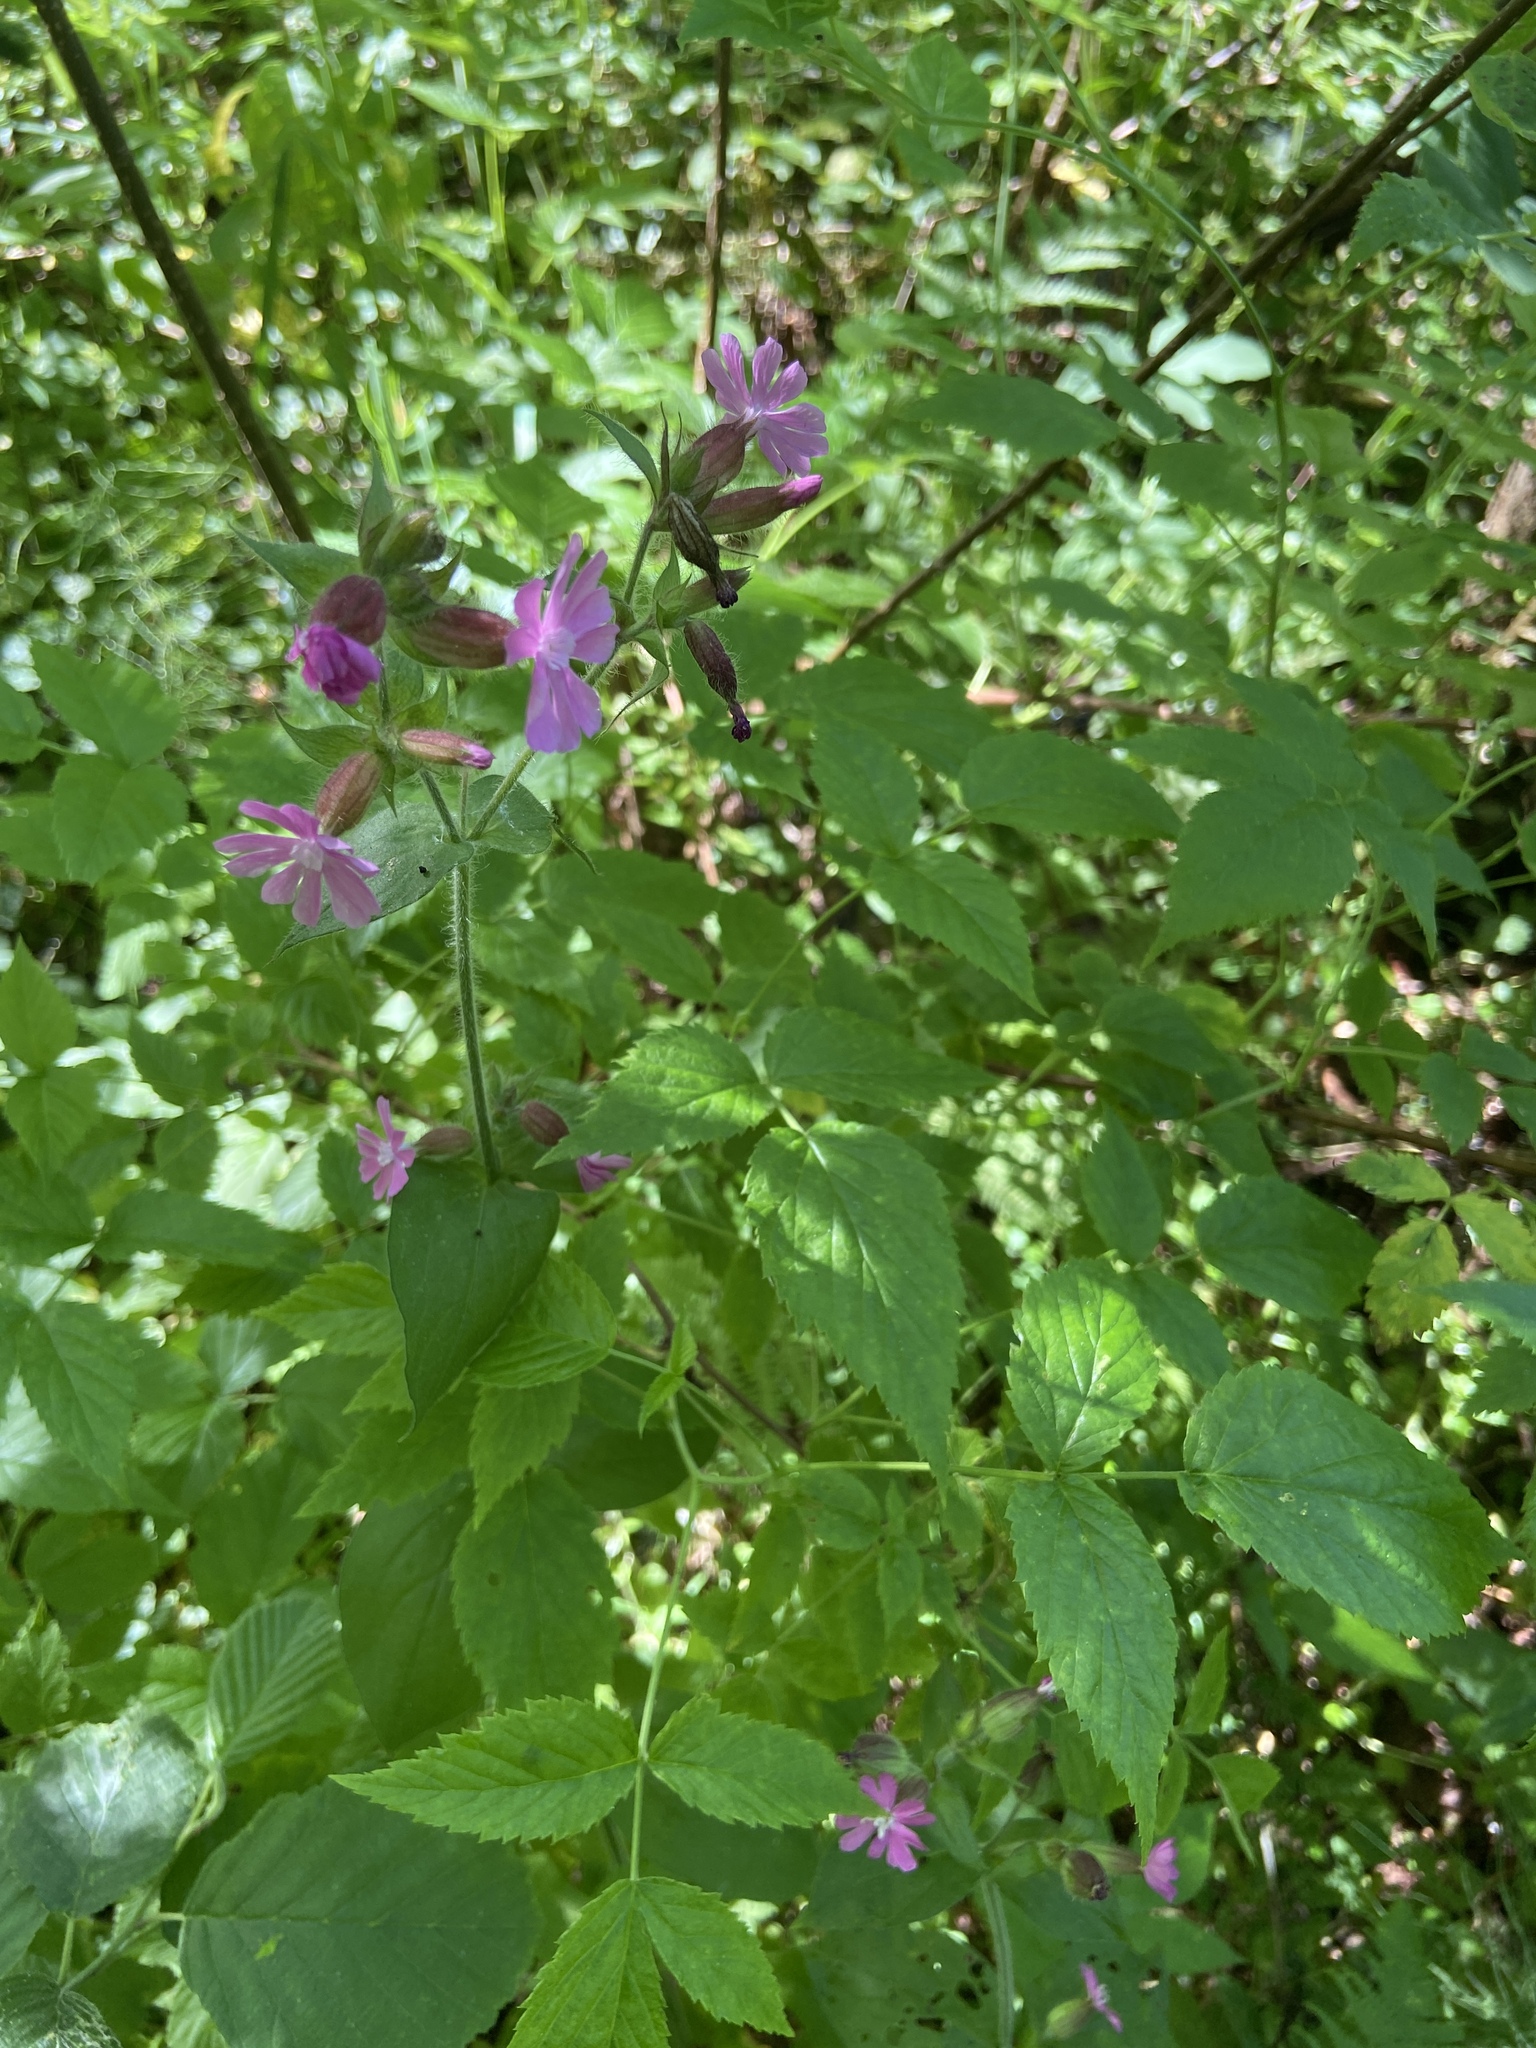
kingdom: Plantae
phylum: Tracheophyta
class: Magnoliopsida
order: Caryophyllales
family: Caryophyllaceae
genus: Silene
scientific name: Silene dioica
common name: Red campion
